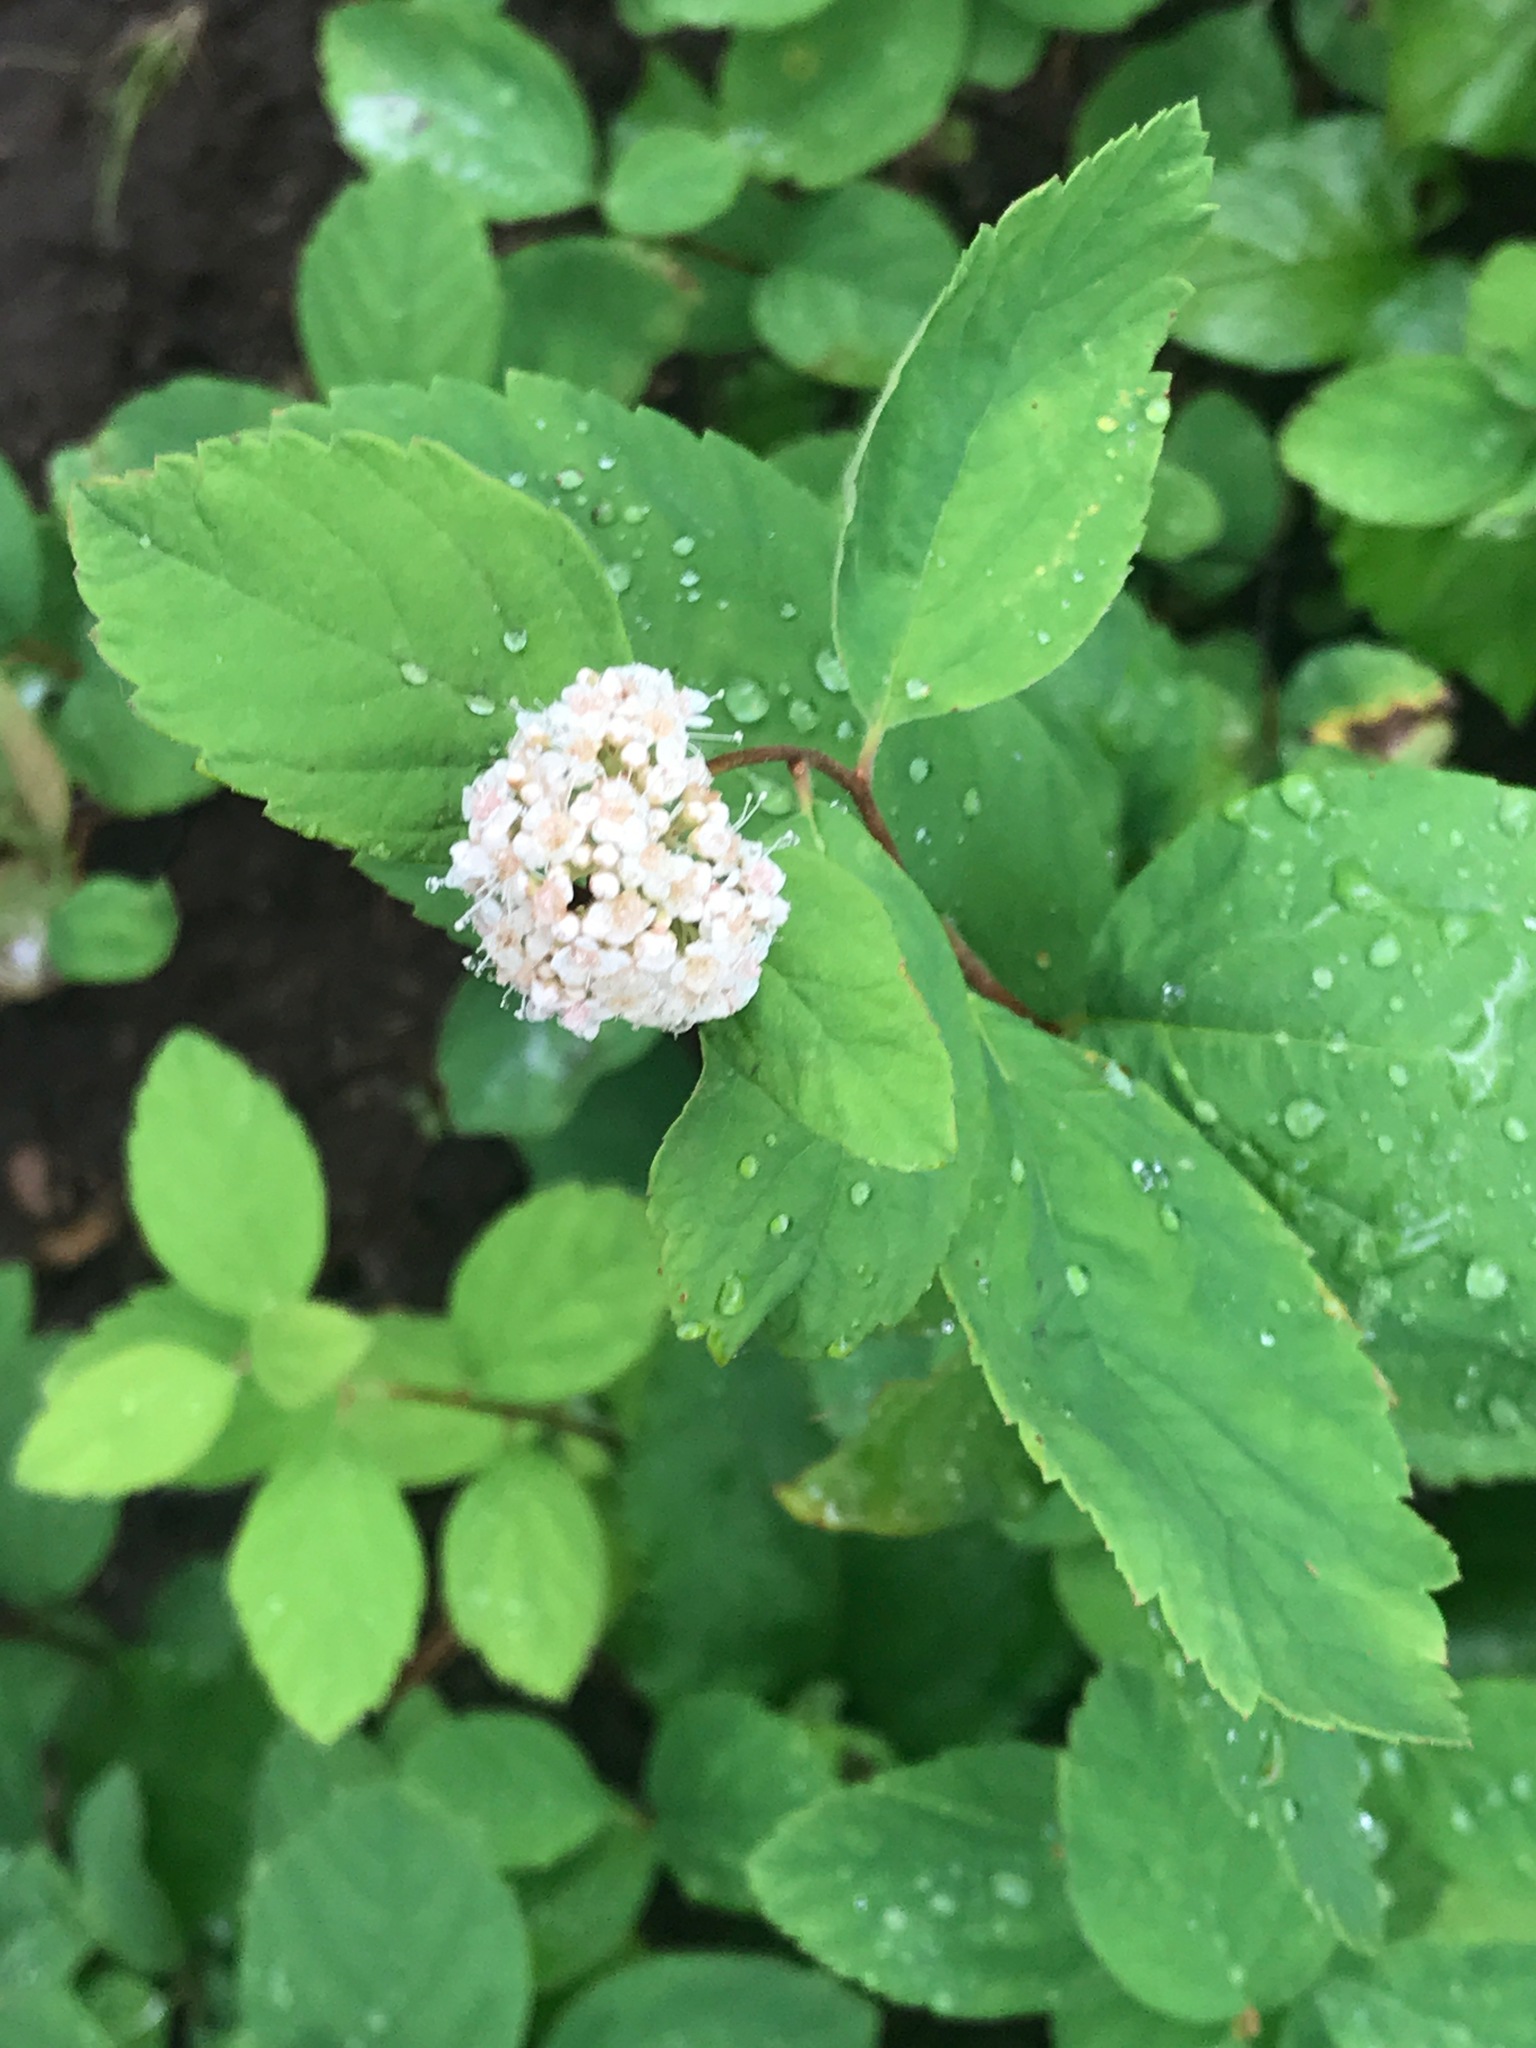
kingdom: Plantae
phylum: Tracheophyta
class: Magnoliopsida
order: Rosales
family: Rosaceae
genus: Spiraea
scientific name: Spiraea corymbosa
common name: Corymbed meadowsweet
